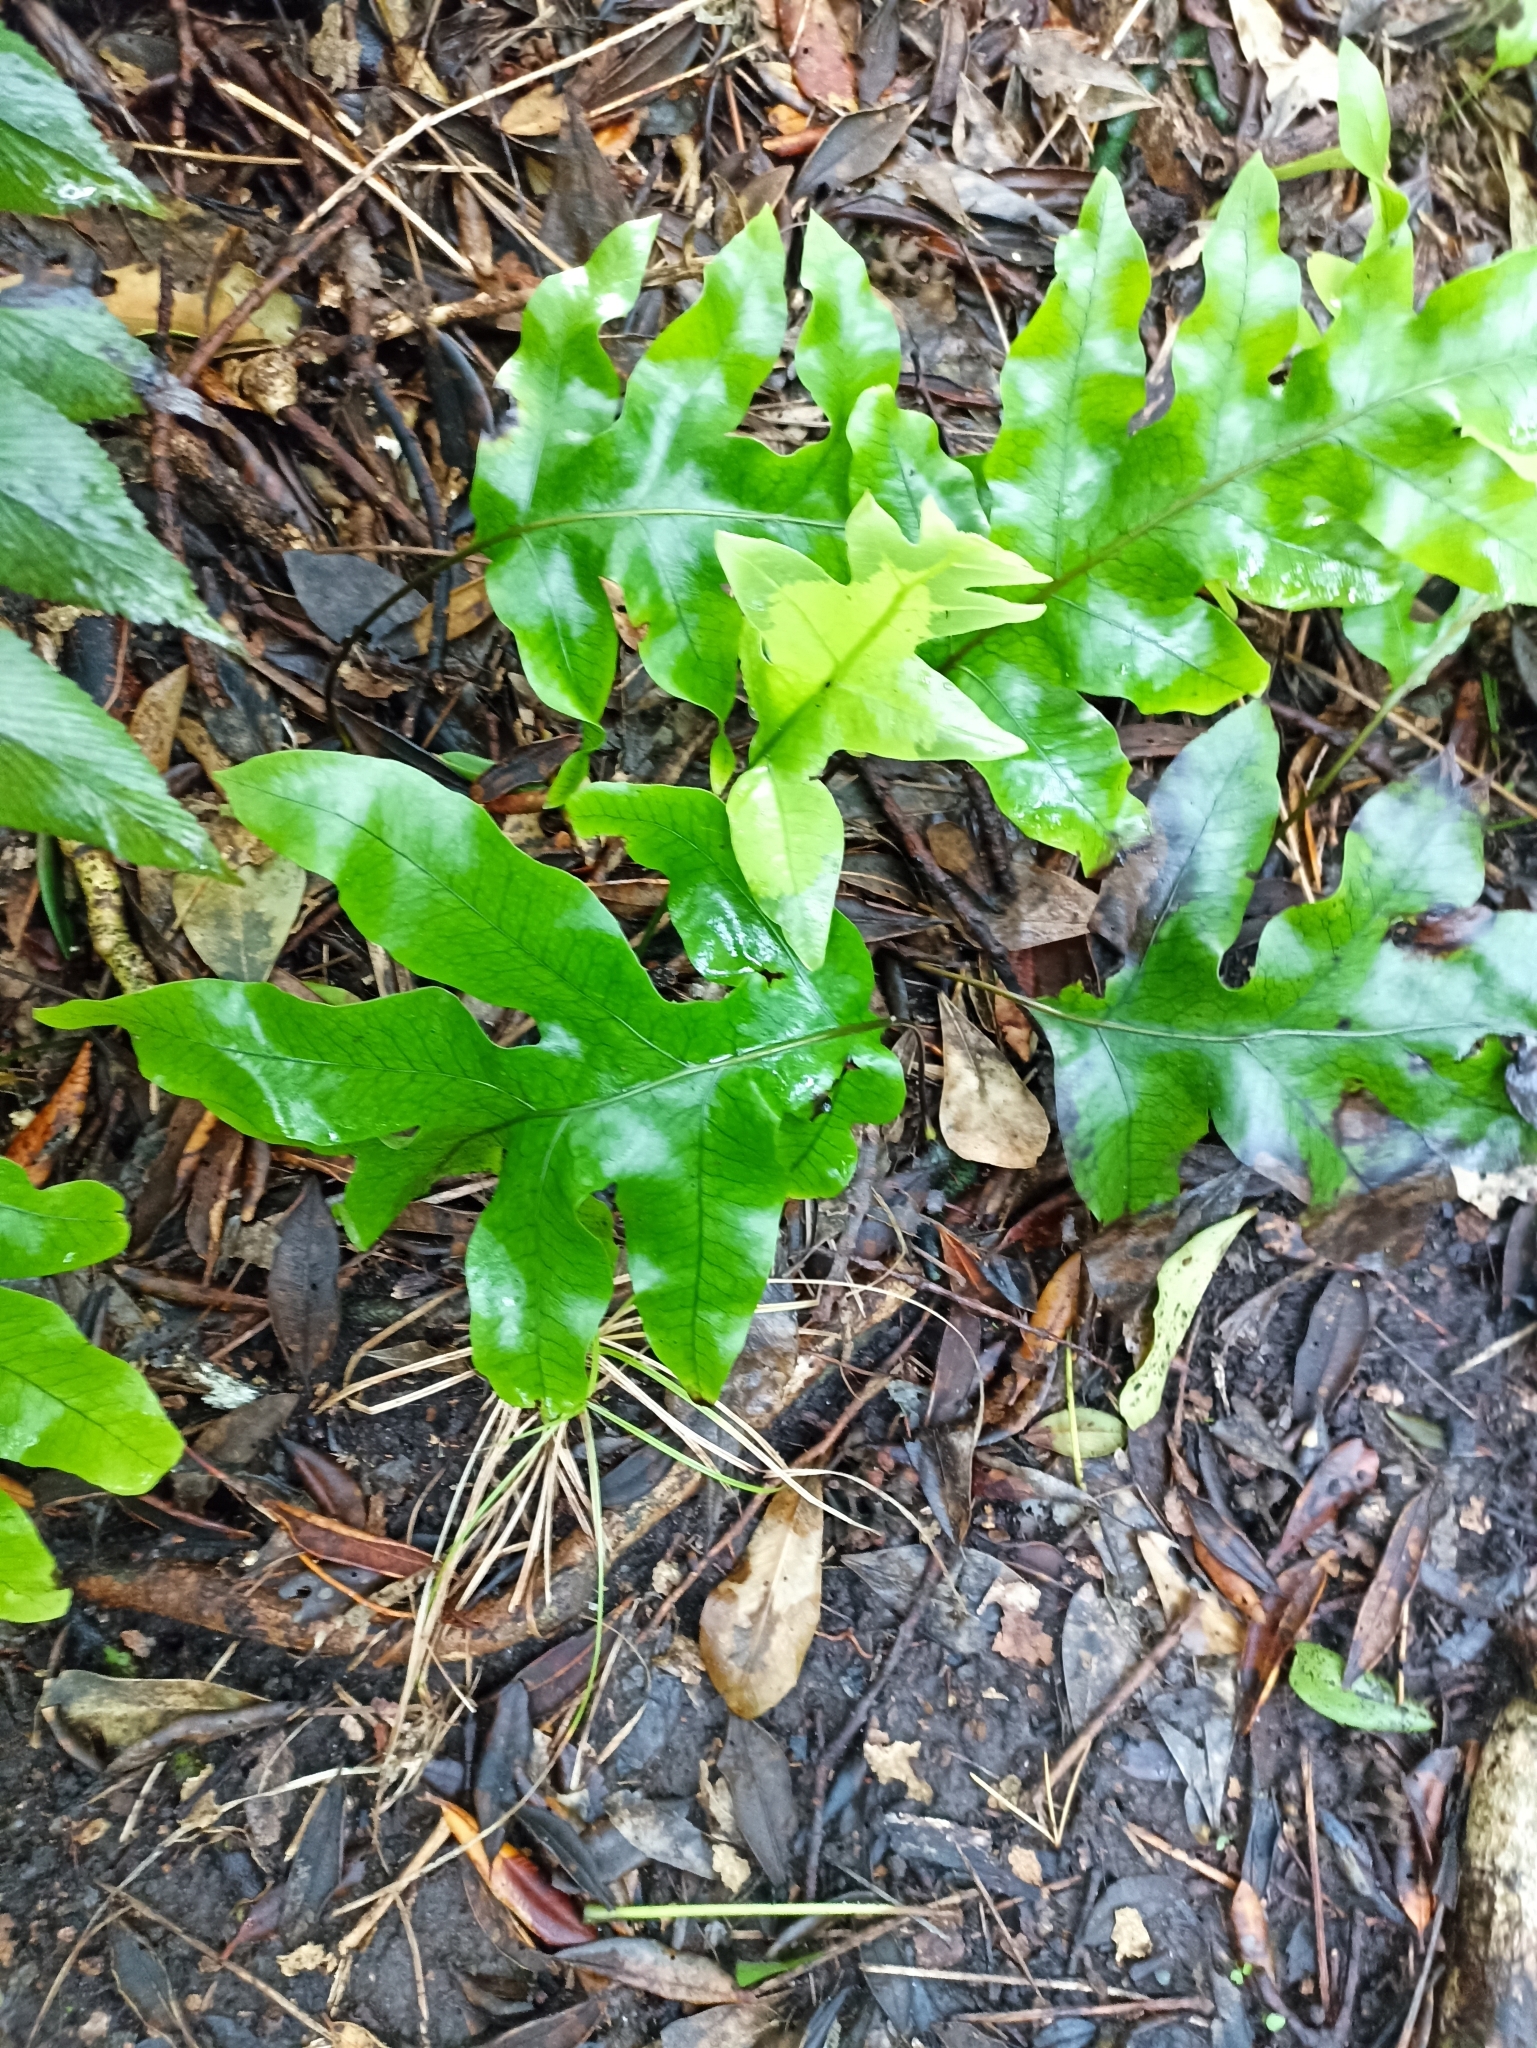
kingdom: Plantae
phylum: Tracheophyta
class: Polypodiopsida
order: Polypodiales
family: Polypodiaceae
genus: Lecanopteris
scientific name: Lecanopteris pustulata
